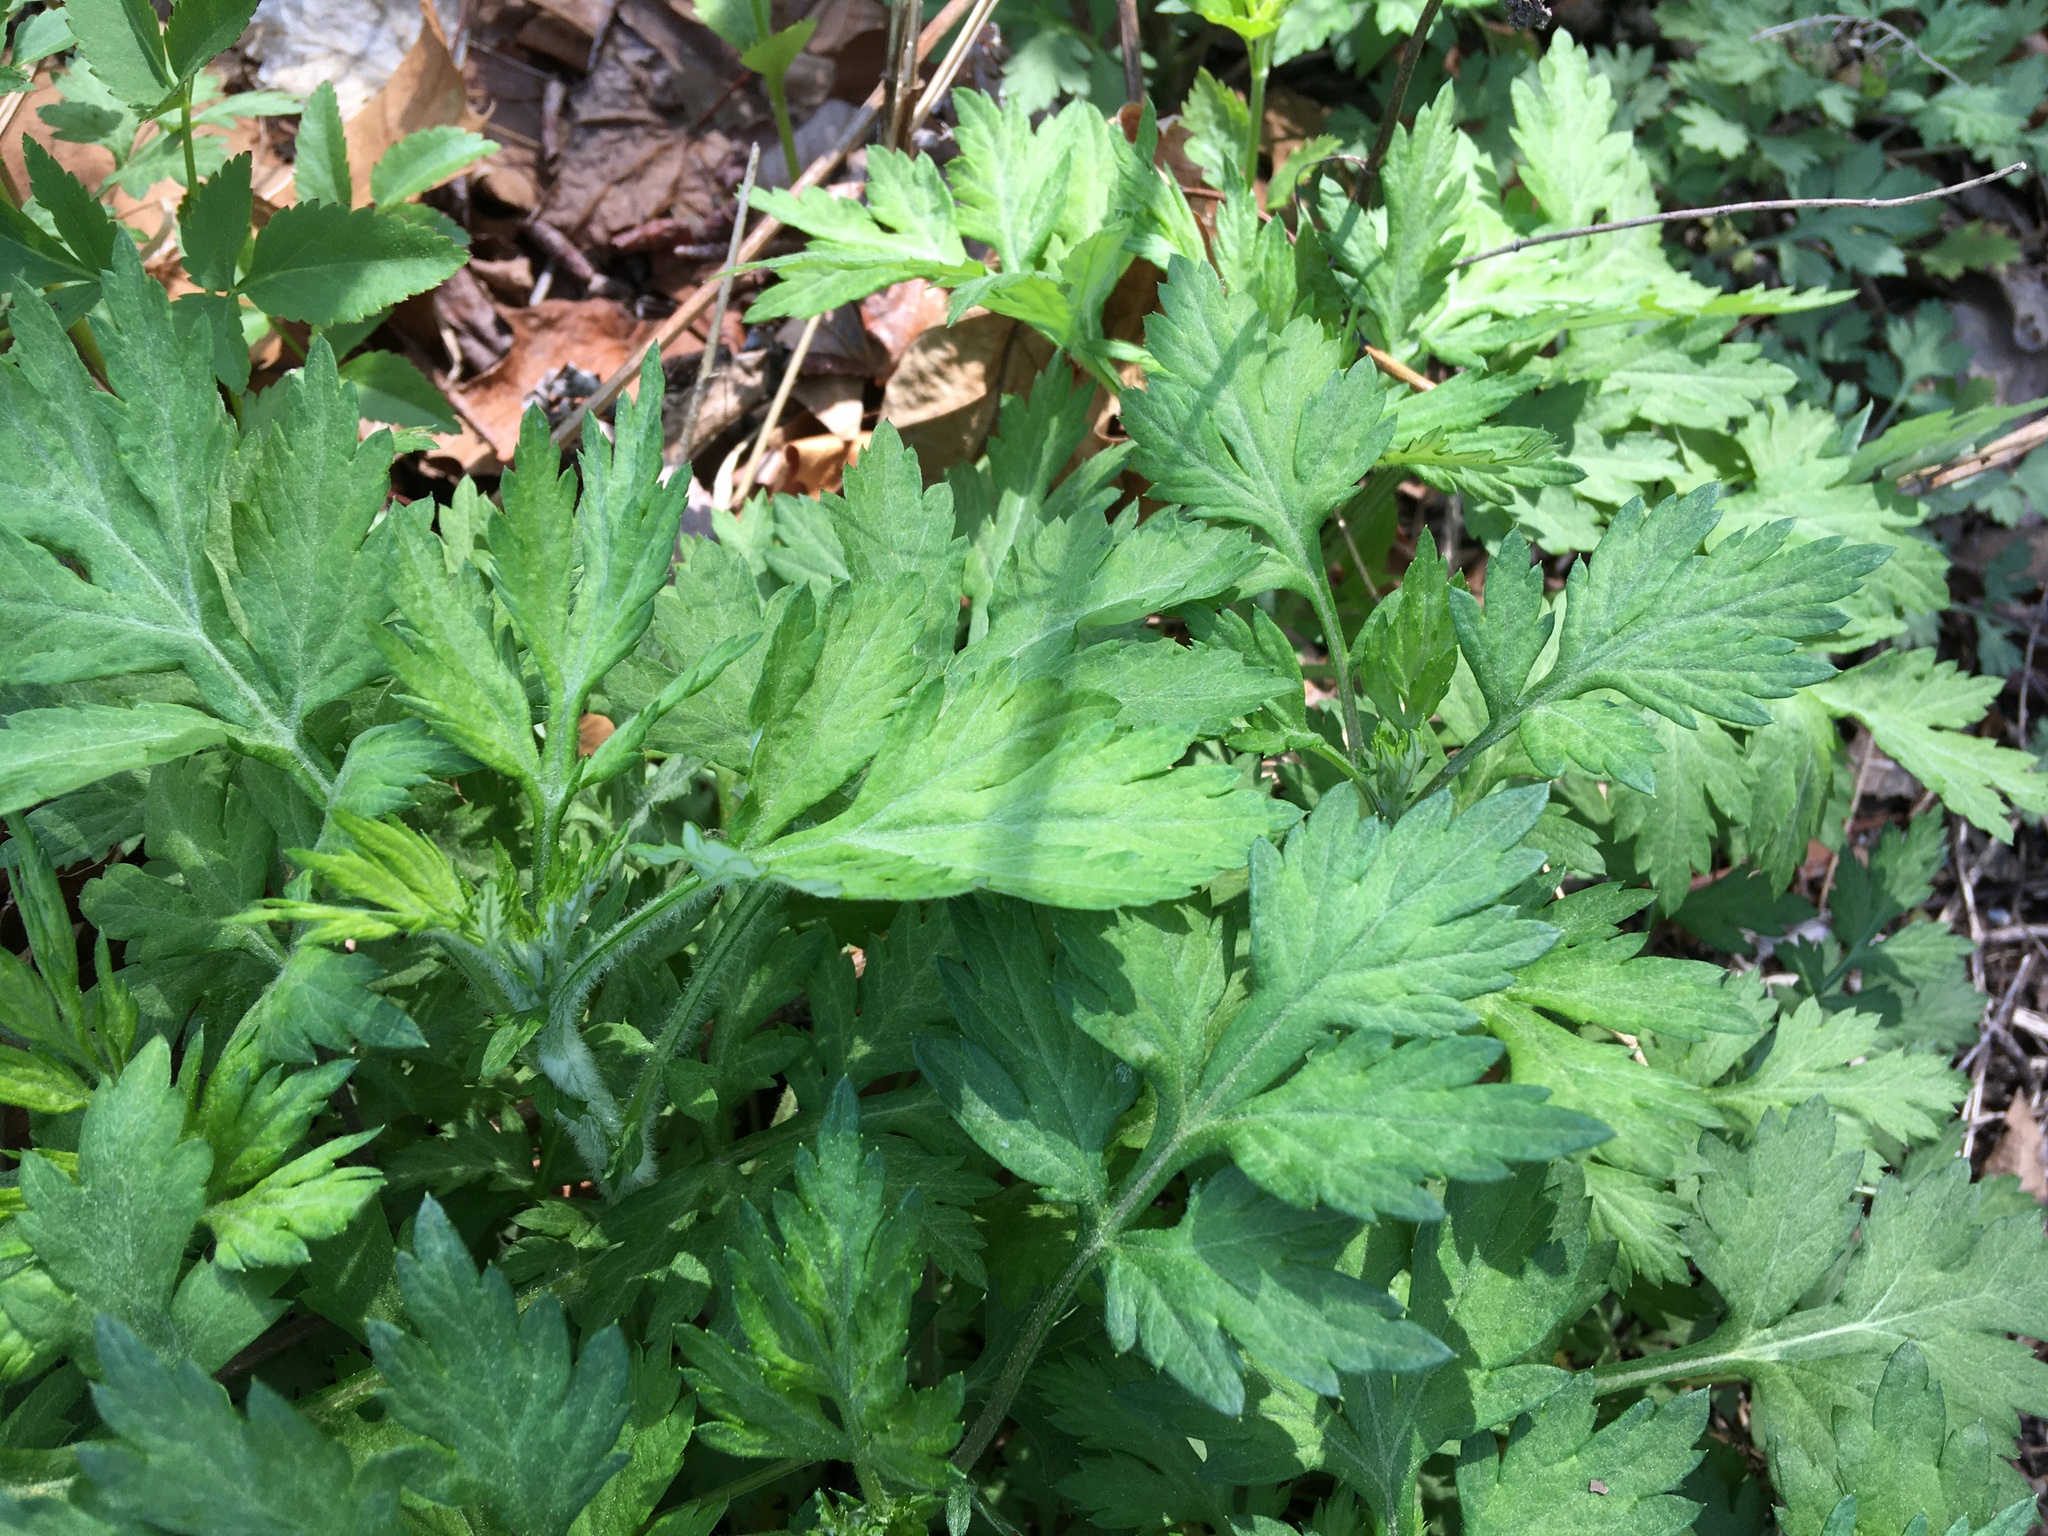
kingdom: Plantae
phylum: Tracheophyta
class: Magnoliopsida
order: Asterales
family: Asteraceae
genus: Artemisia
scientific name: Artemisia vulgaris
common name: Mugwort
